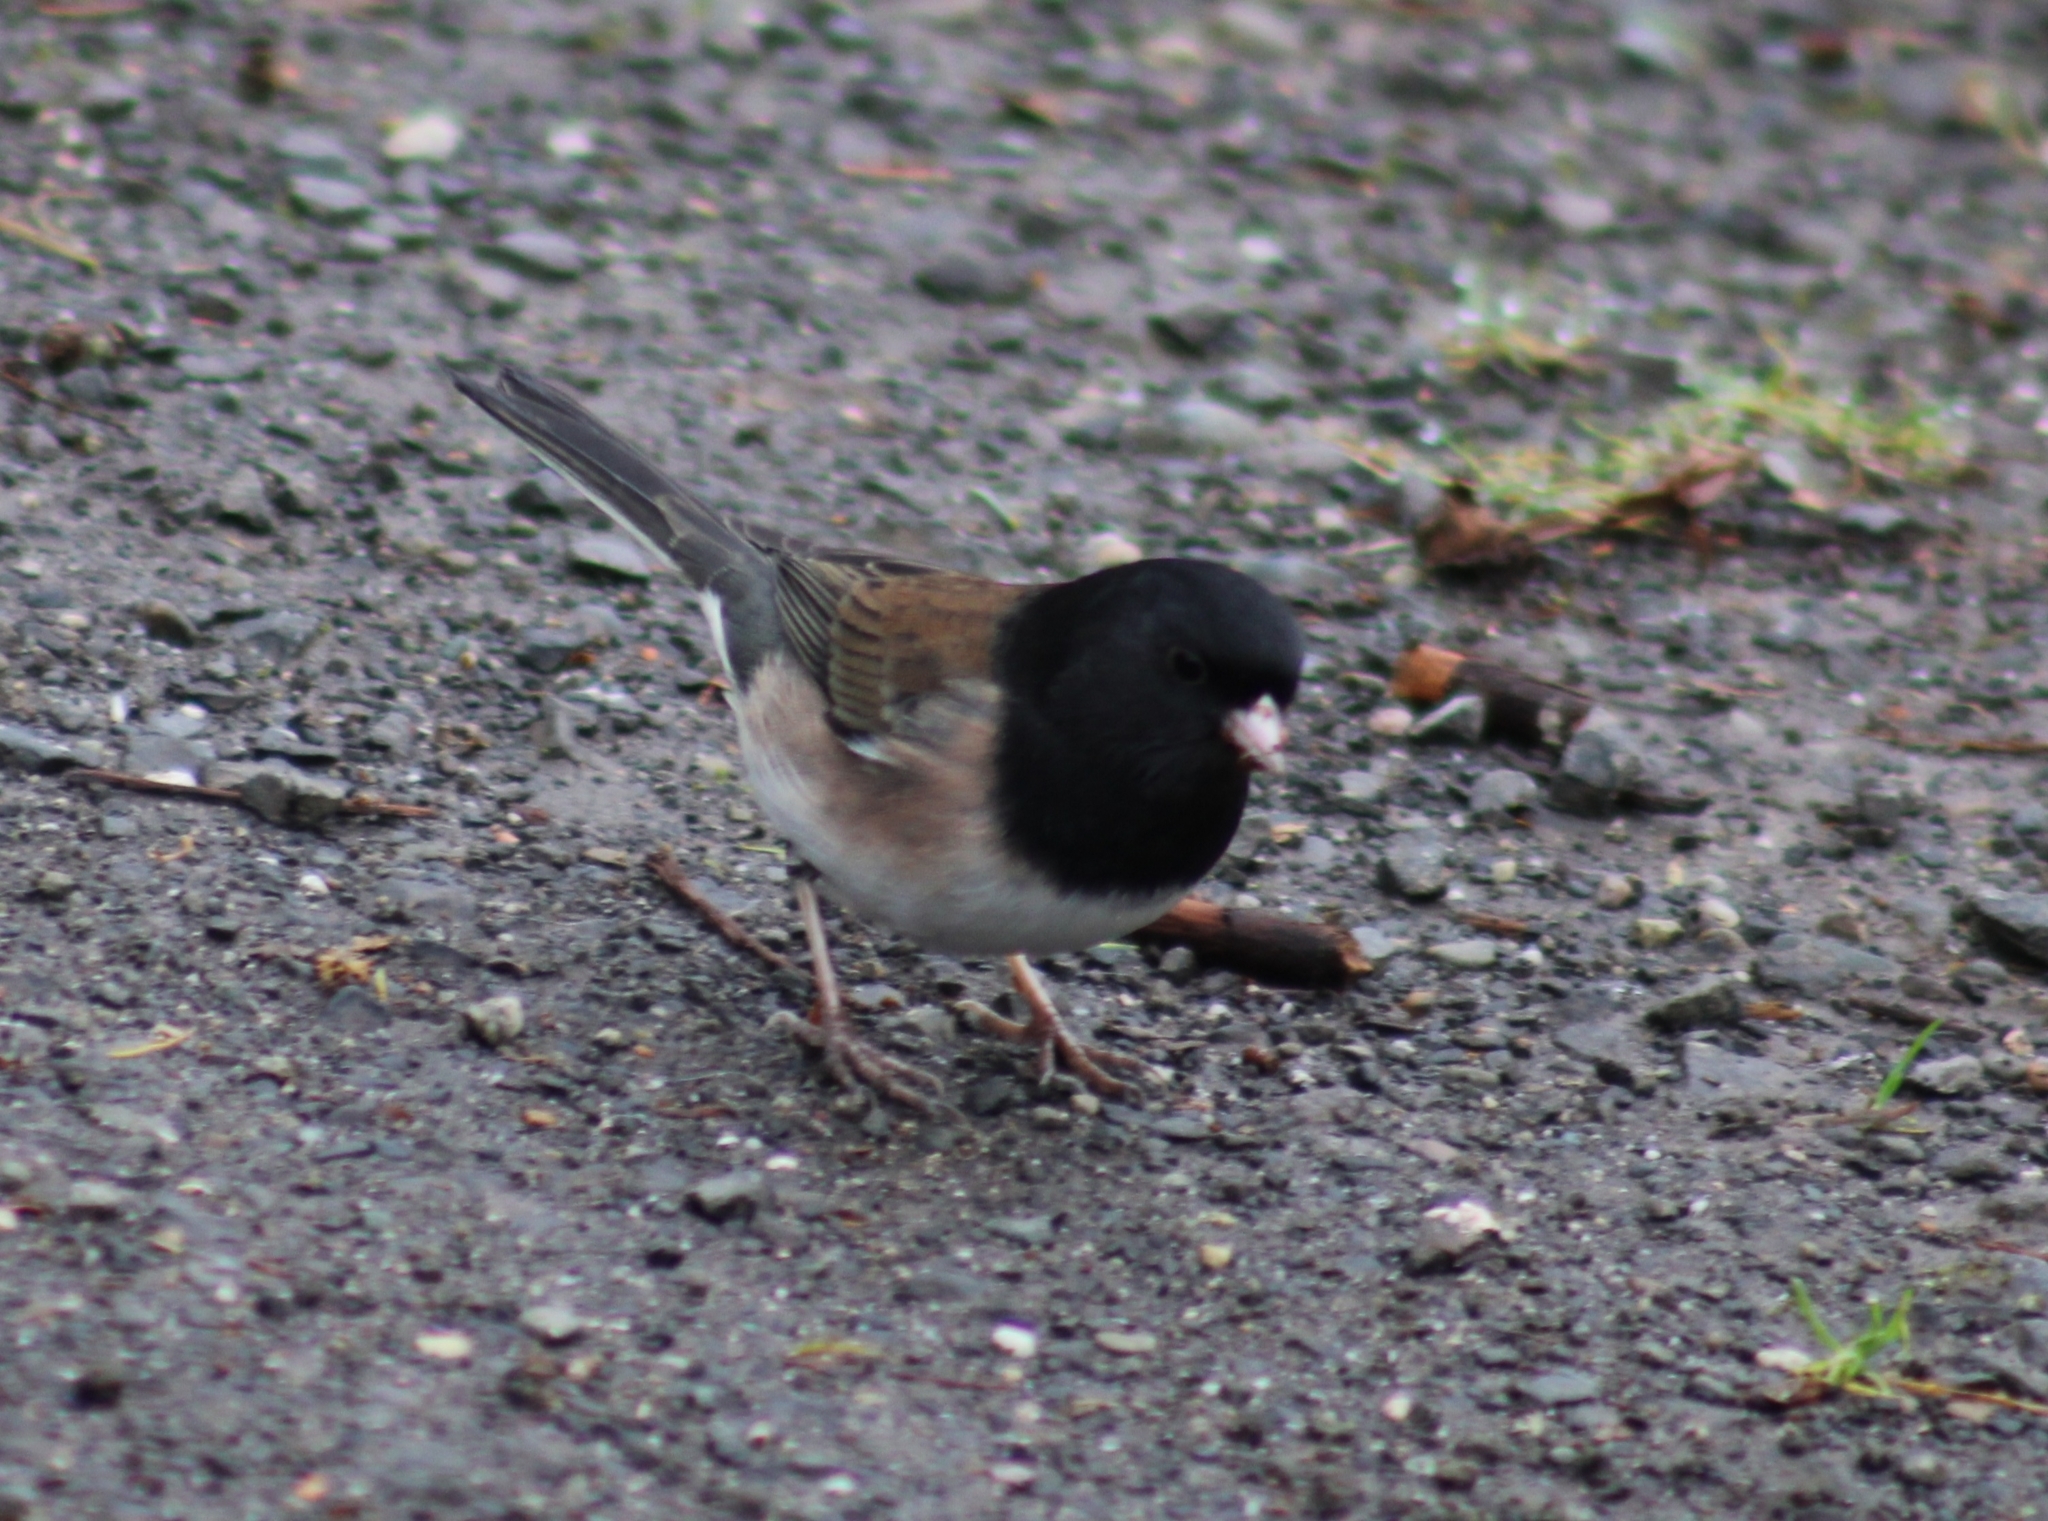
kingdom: Animalia
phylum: Chordata
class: Aves
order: Passeriformes
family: Passerellidae
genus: Junco
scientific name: Junco hyemalis
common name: Dark-eyed junco
